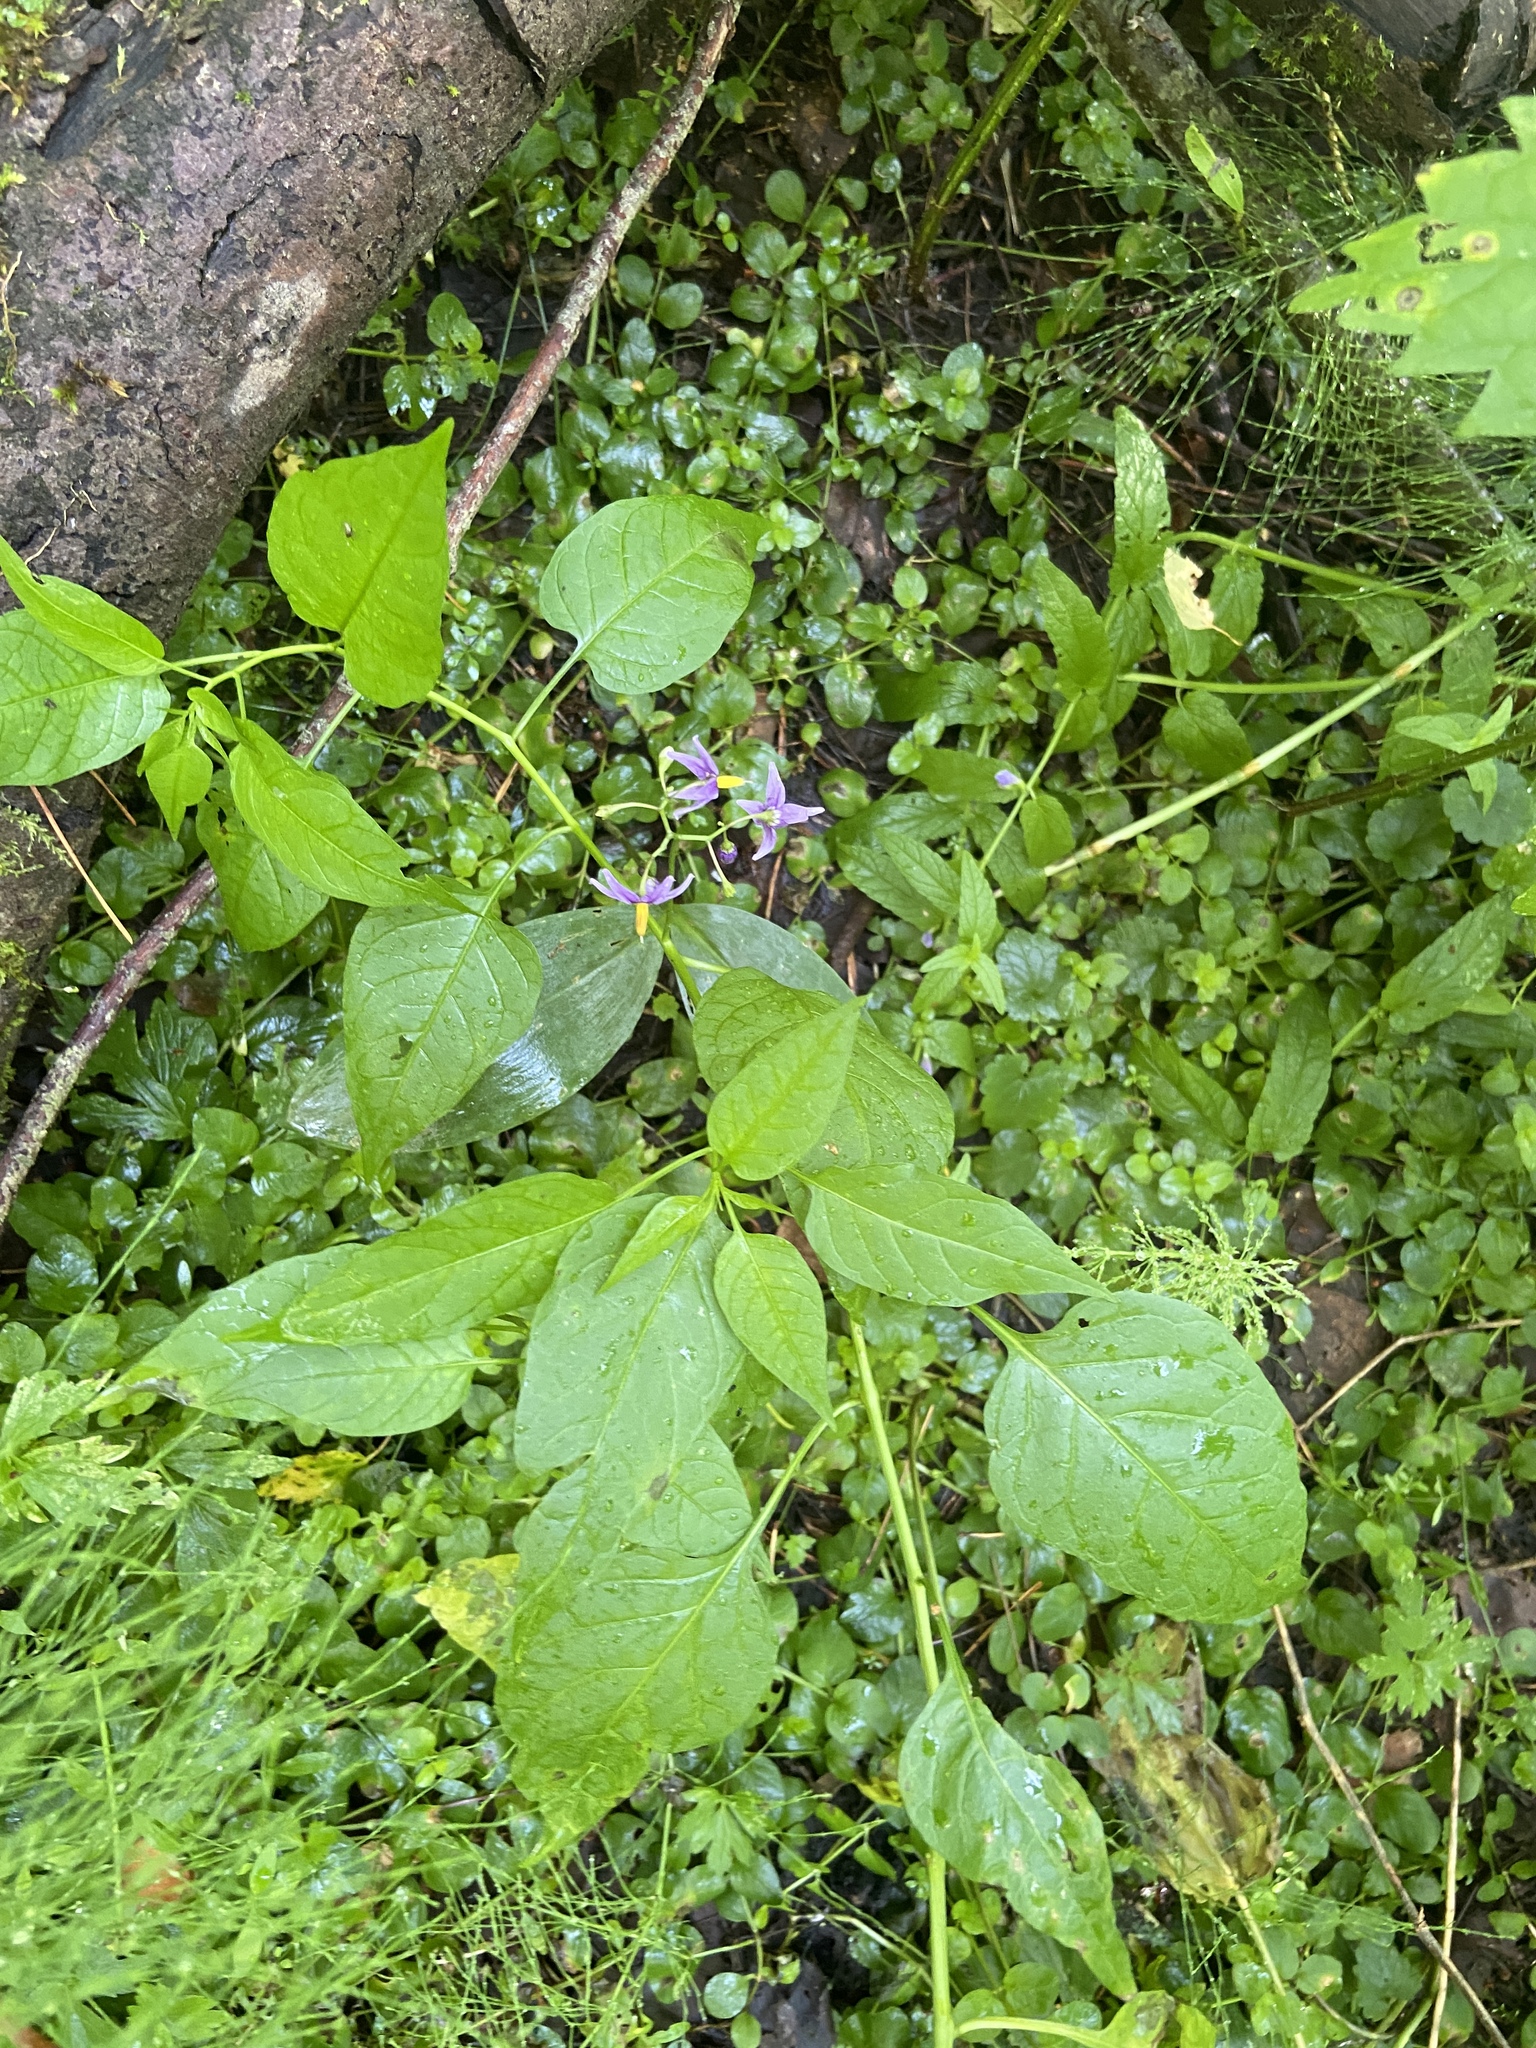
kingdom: Plantae
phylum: Tracheophyta
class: Magnoliopsida
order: Solanales
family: Solanaceae
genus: Solanum
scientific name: Solanum dulcamara
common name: Climbing nightshade
